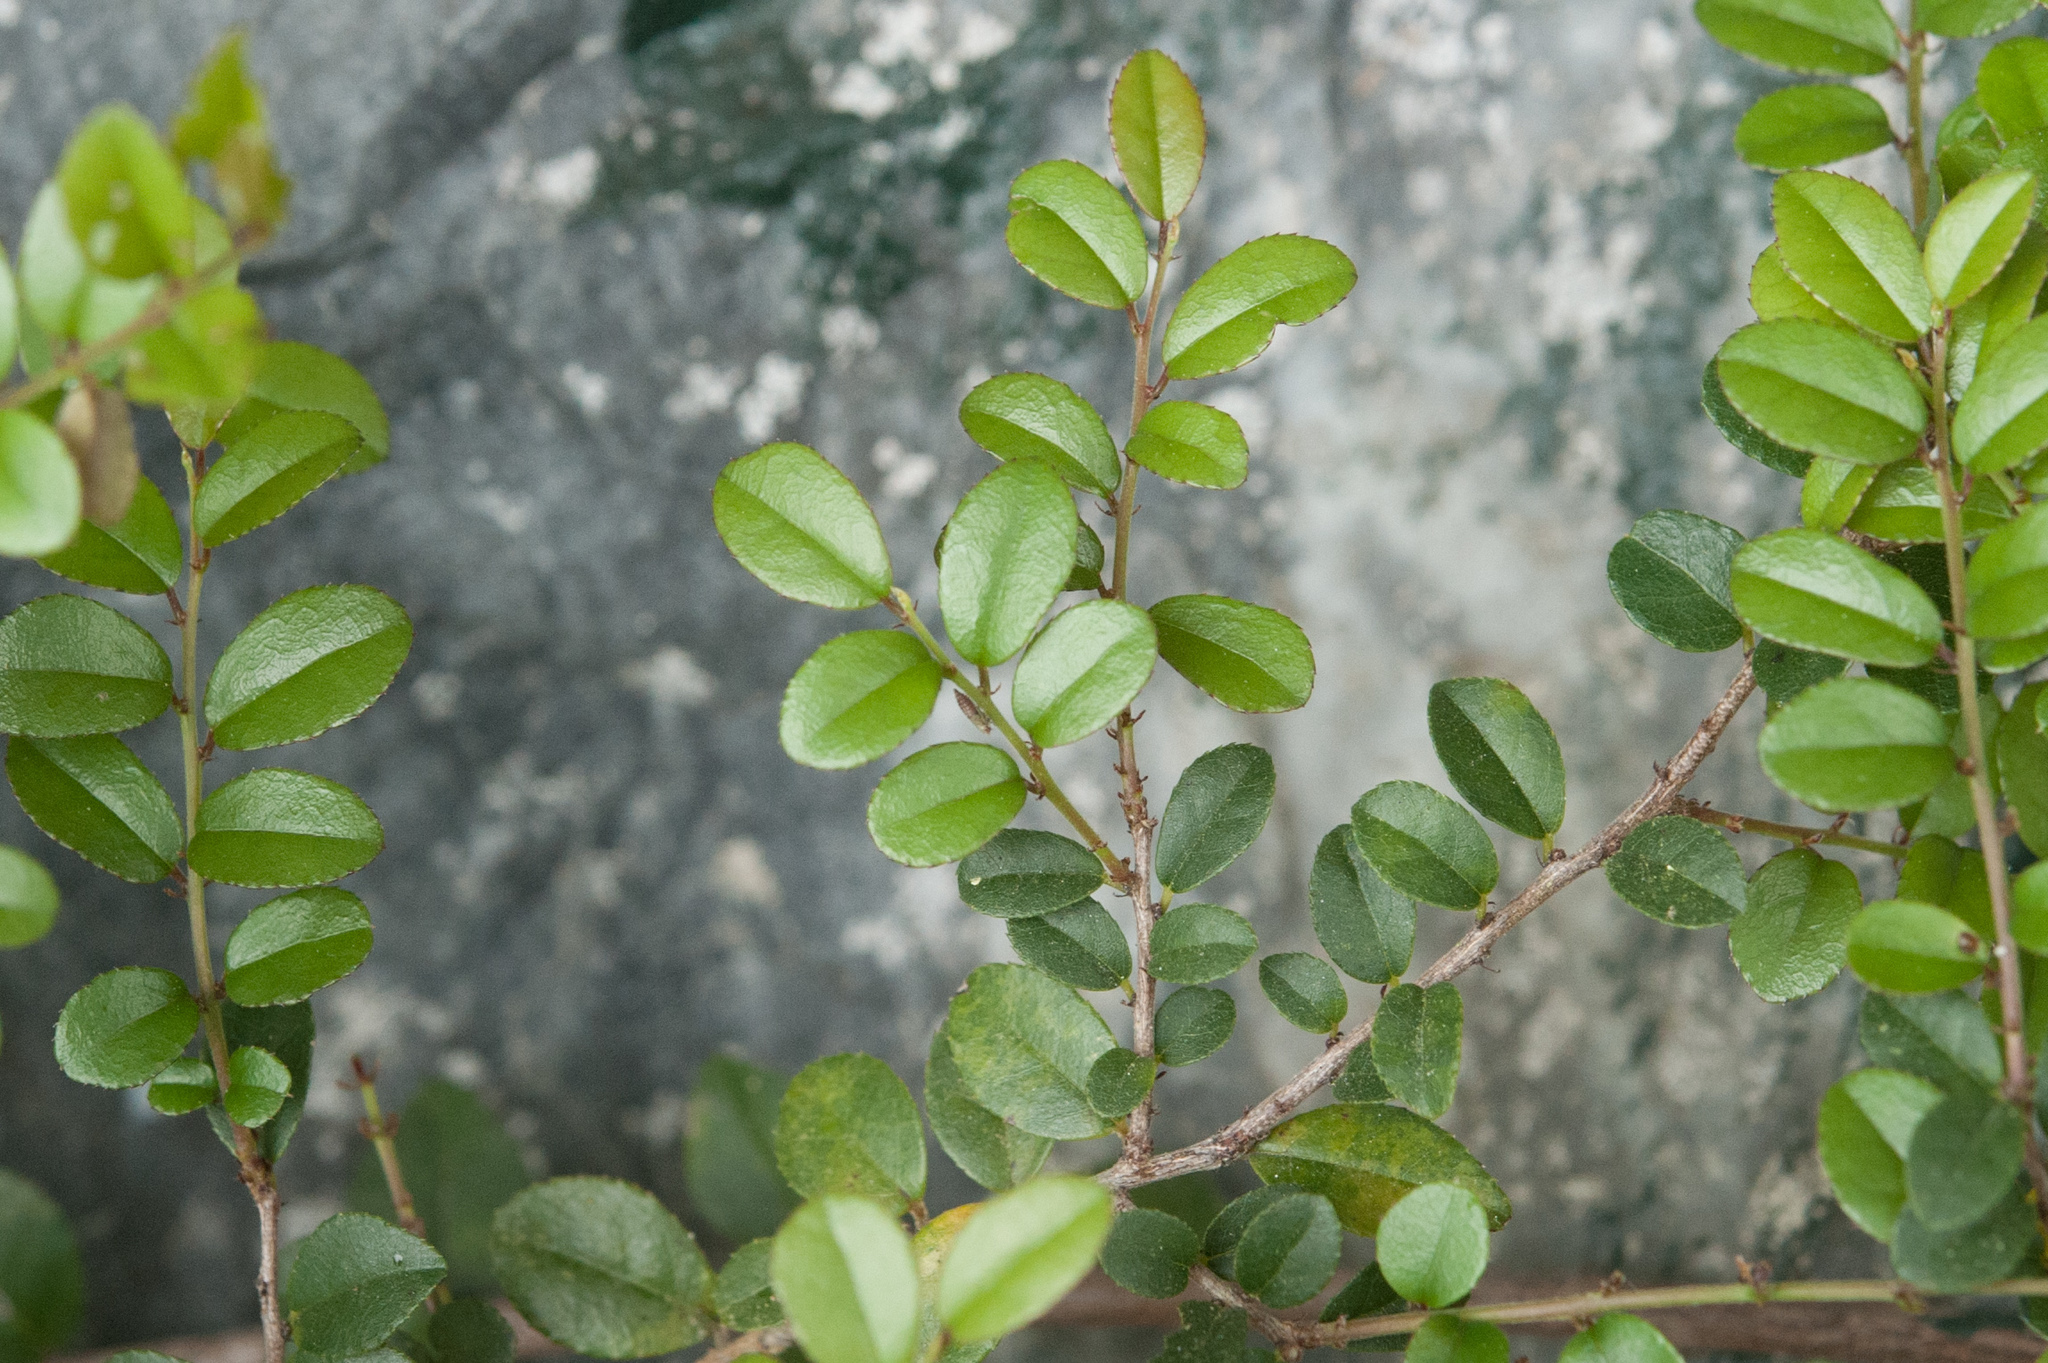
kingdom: Plantae
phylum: Tracheophyta
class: Magnoliopsida
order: Rosales
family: Rhamnaceae
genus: Sageretia
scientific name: Sageretia thea
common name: Pauper's-tea
